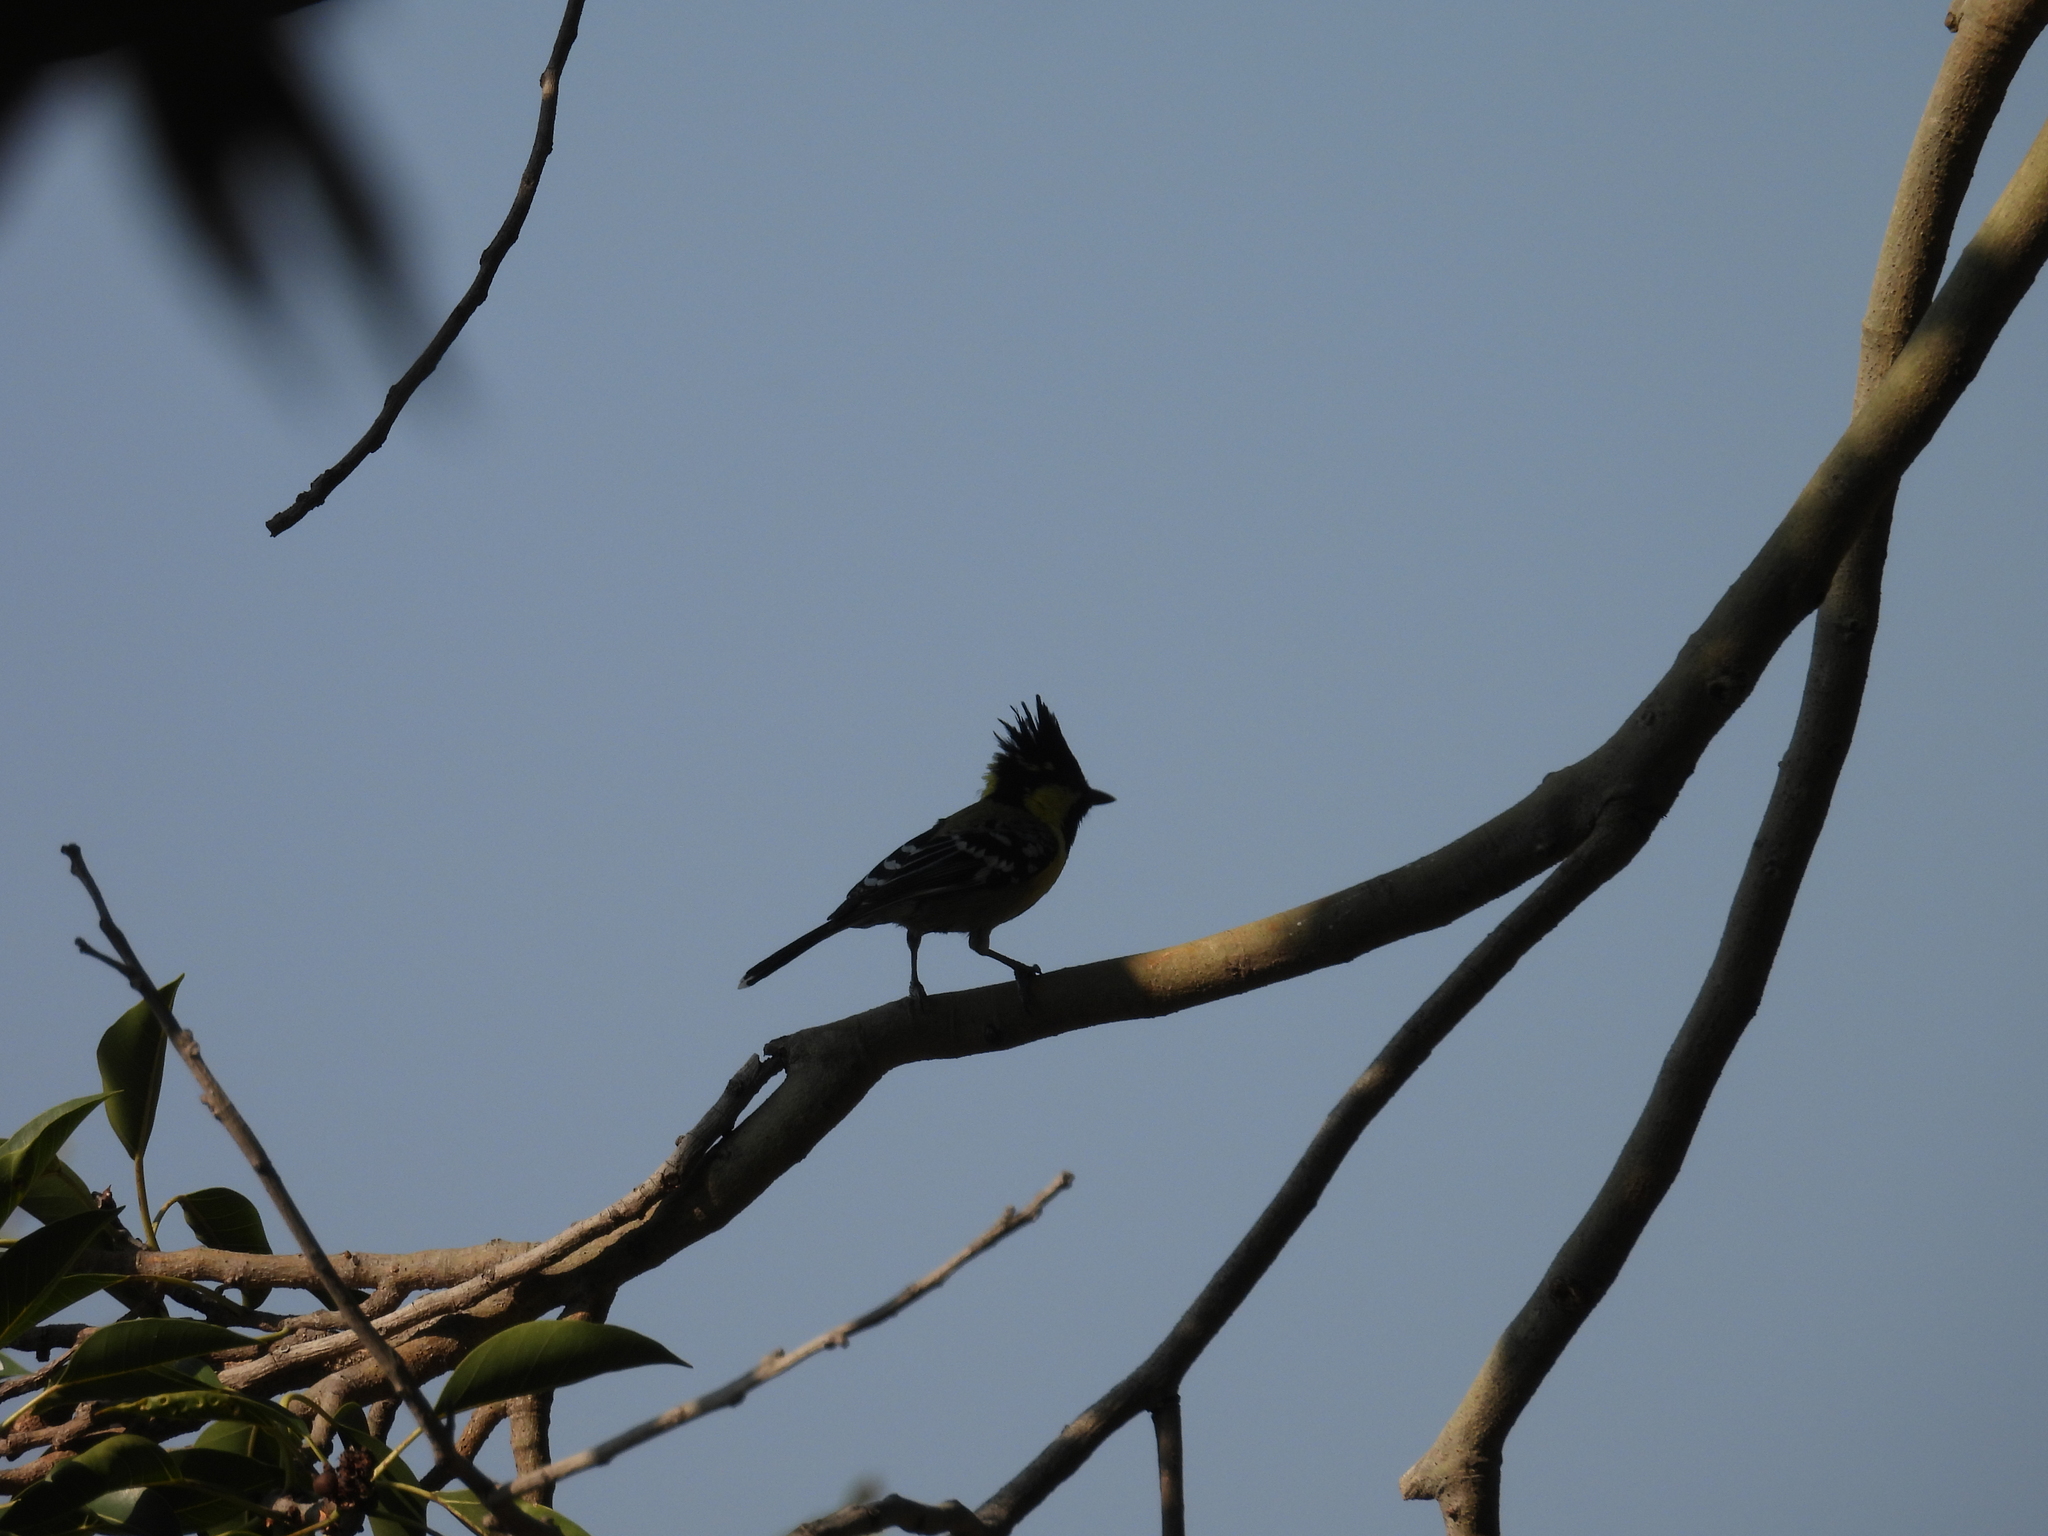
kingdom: Animalia
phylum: Chordata
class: Aves
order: Passeriformes
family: Paridae
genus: Parus
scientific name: Parus aplonotus
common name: Indian black-lored tit
